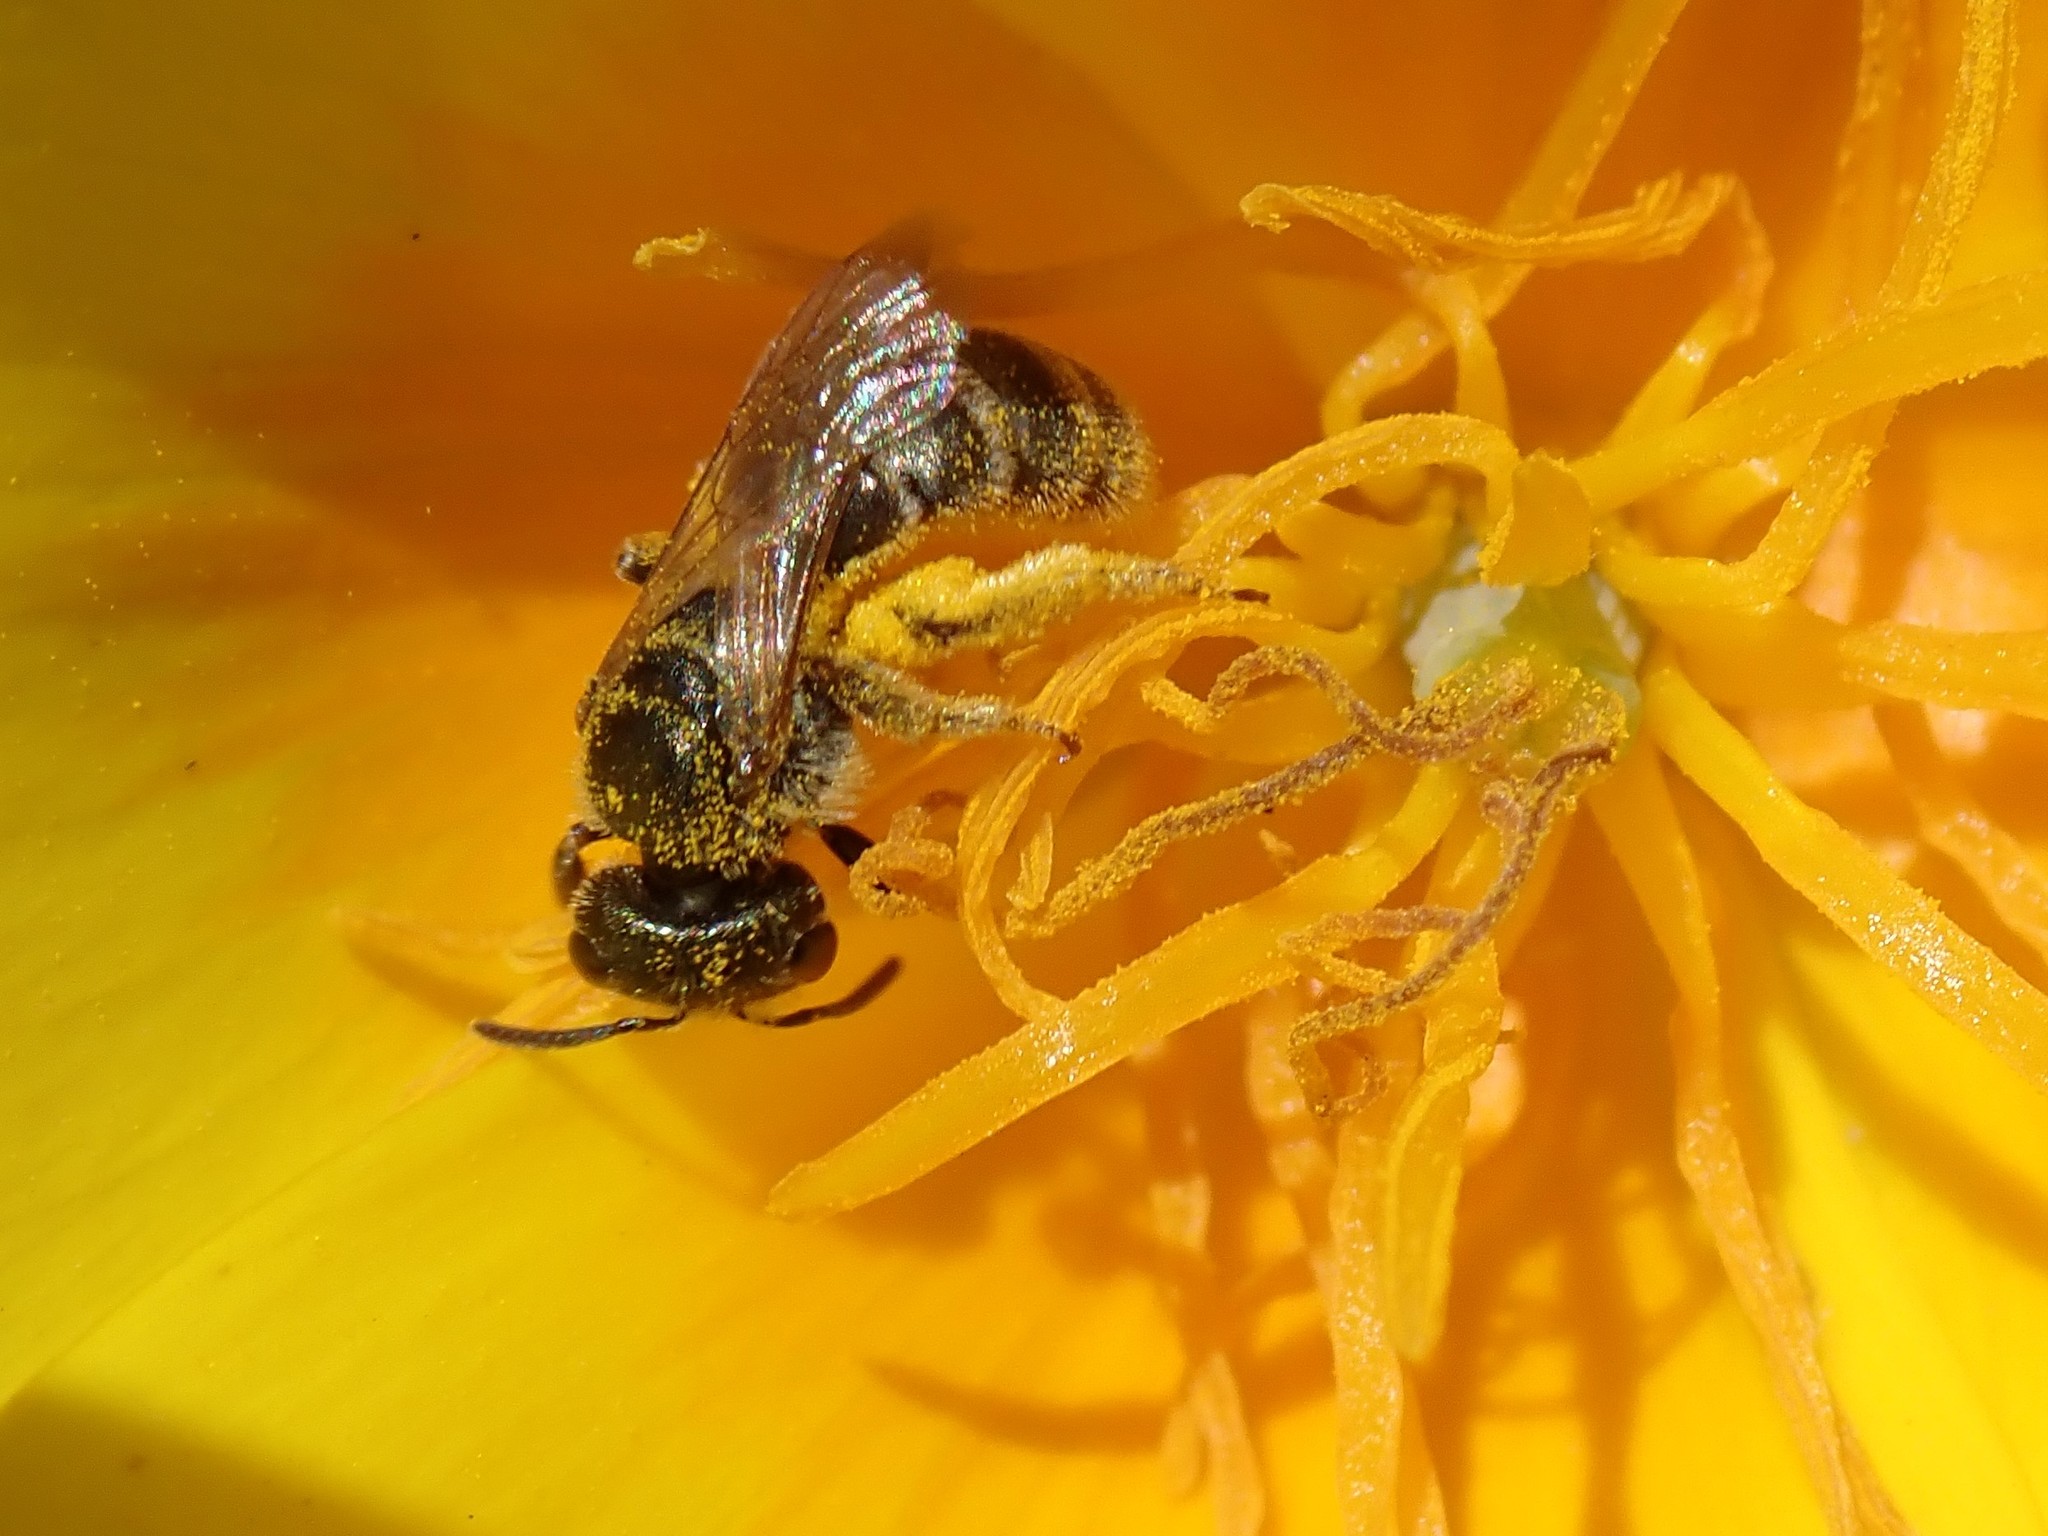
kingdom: Animalia
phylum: Arthropoda
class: Insecta
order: Hymenoptera
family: Halictidae
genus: Halictus
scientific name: Halictus tripartitus
